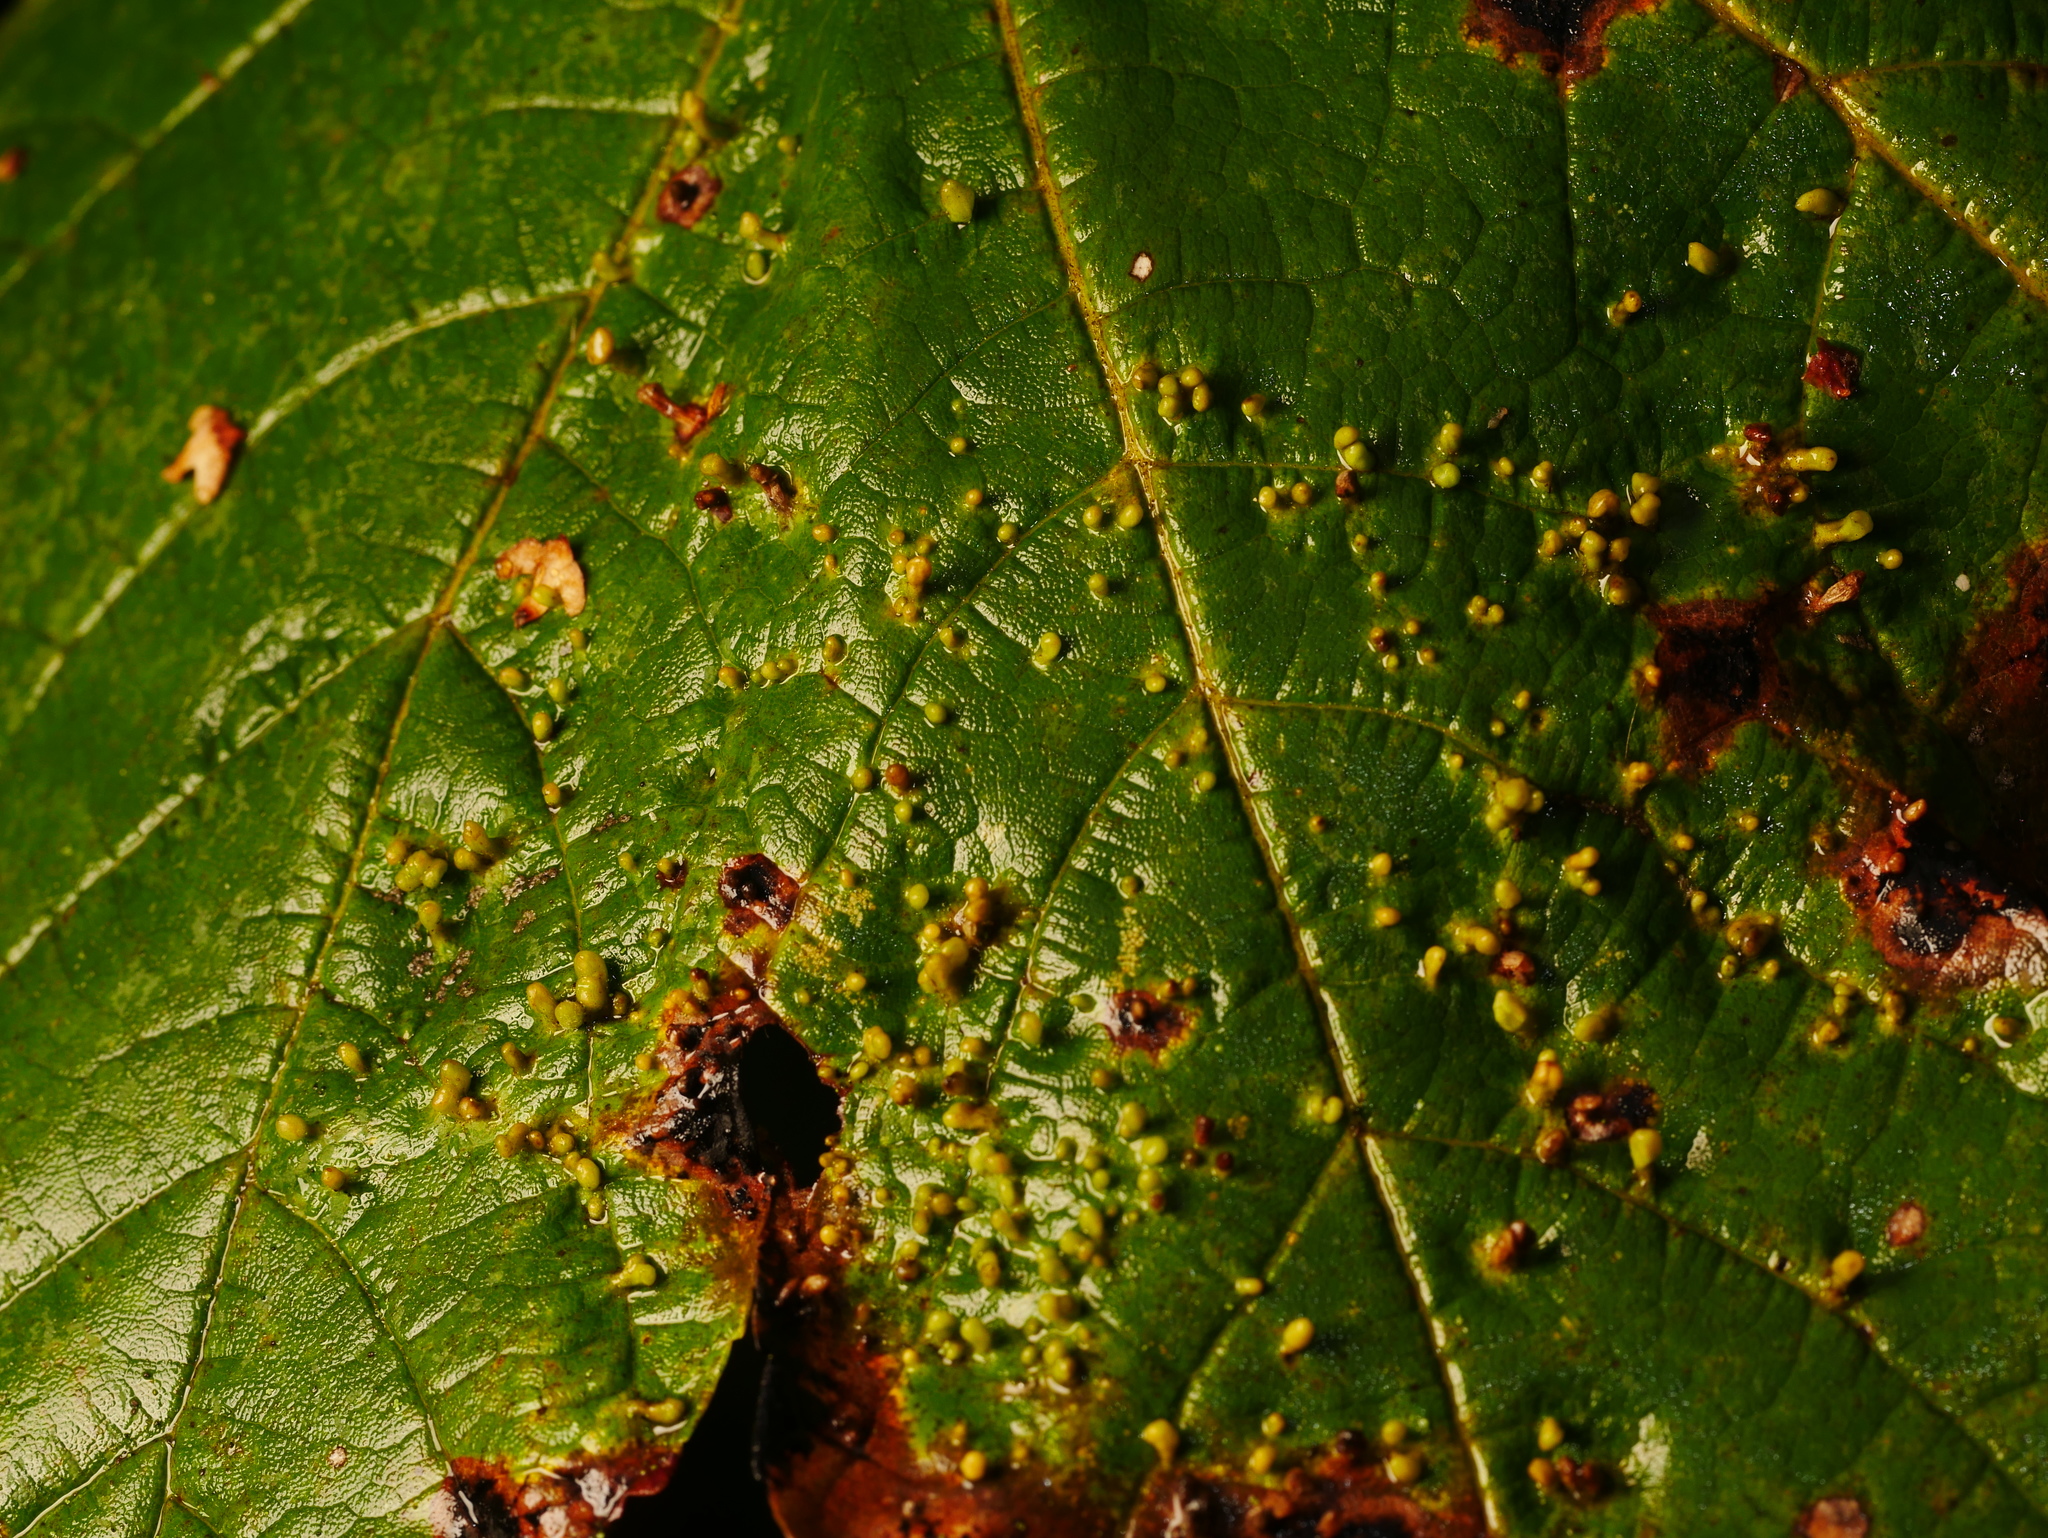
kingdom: Animalia
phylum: Arthropoda
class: Arachnida
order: Trombidiformes
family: Eriophyidae
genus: Aceria
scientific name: Aceria cephaloneus
